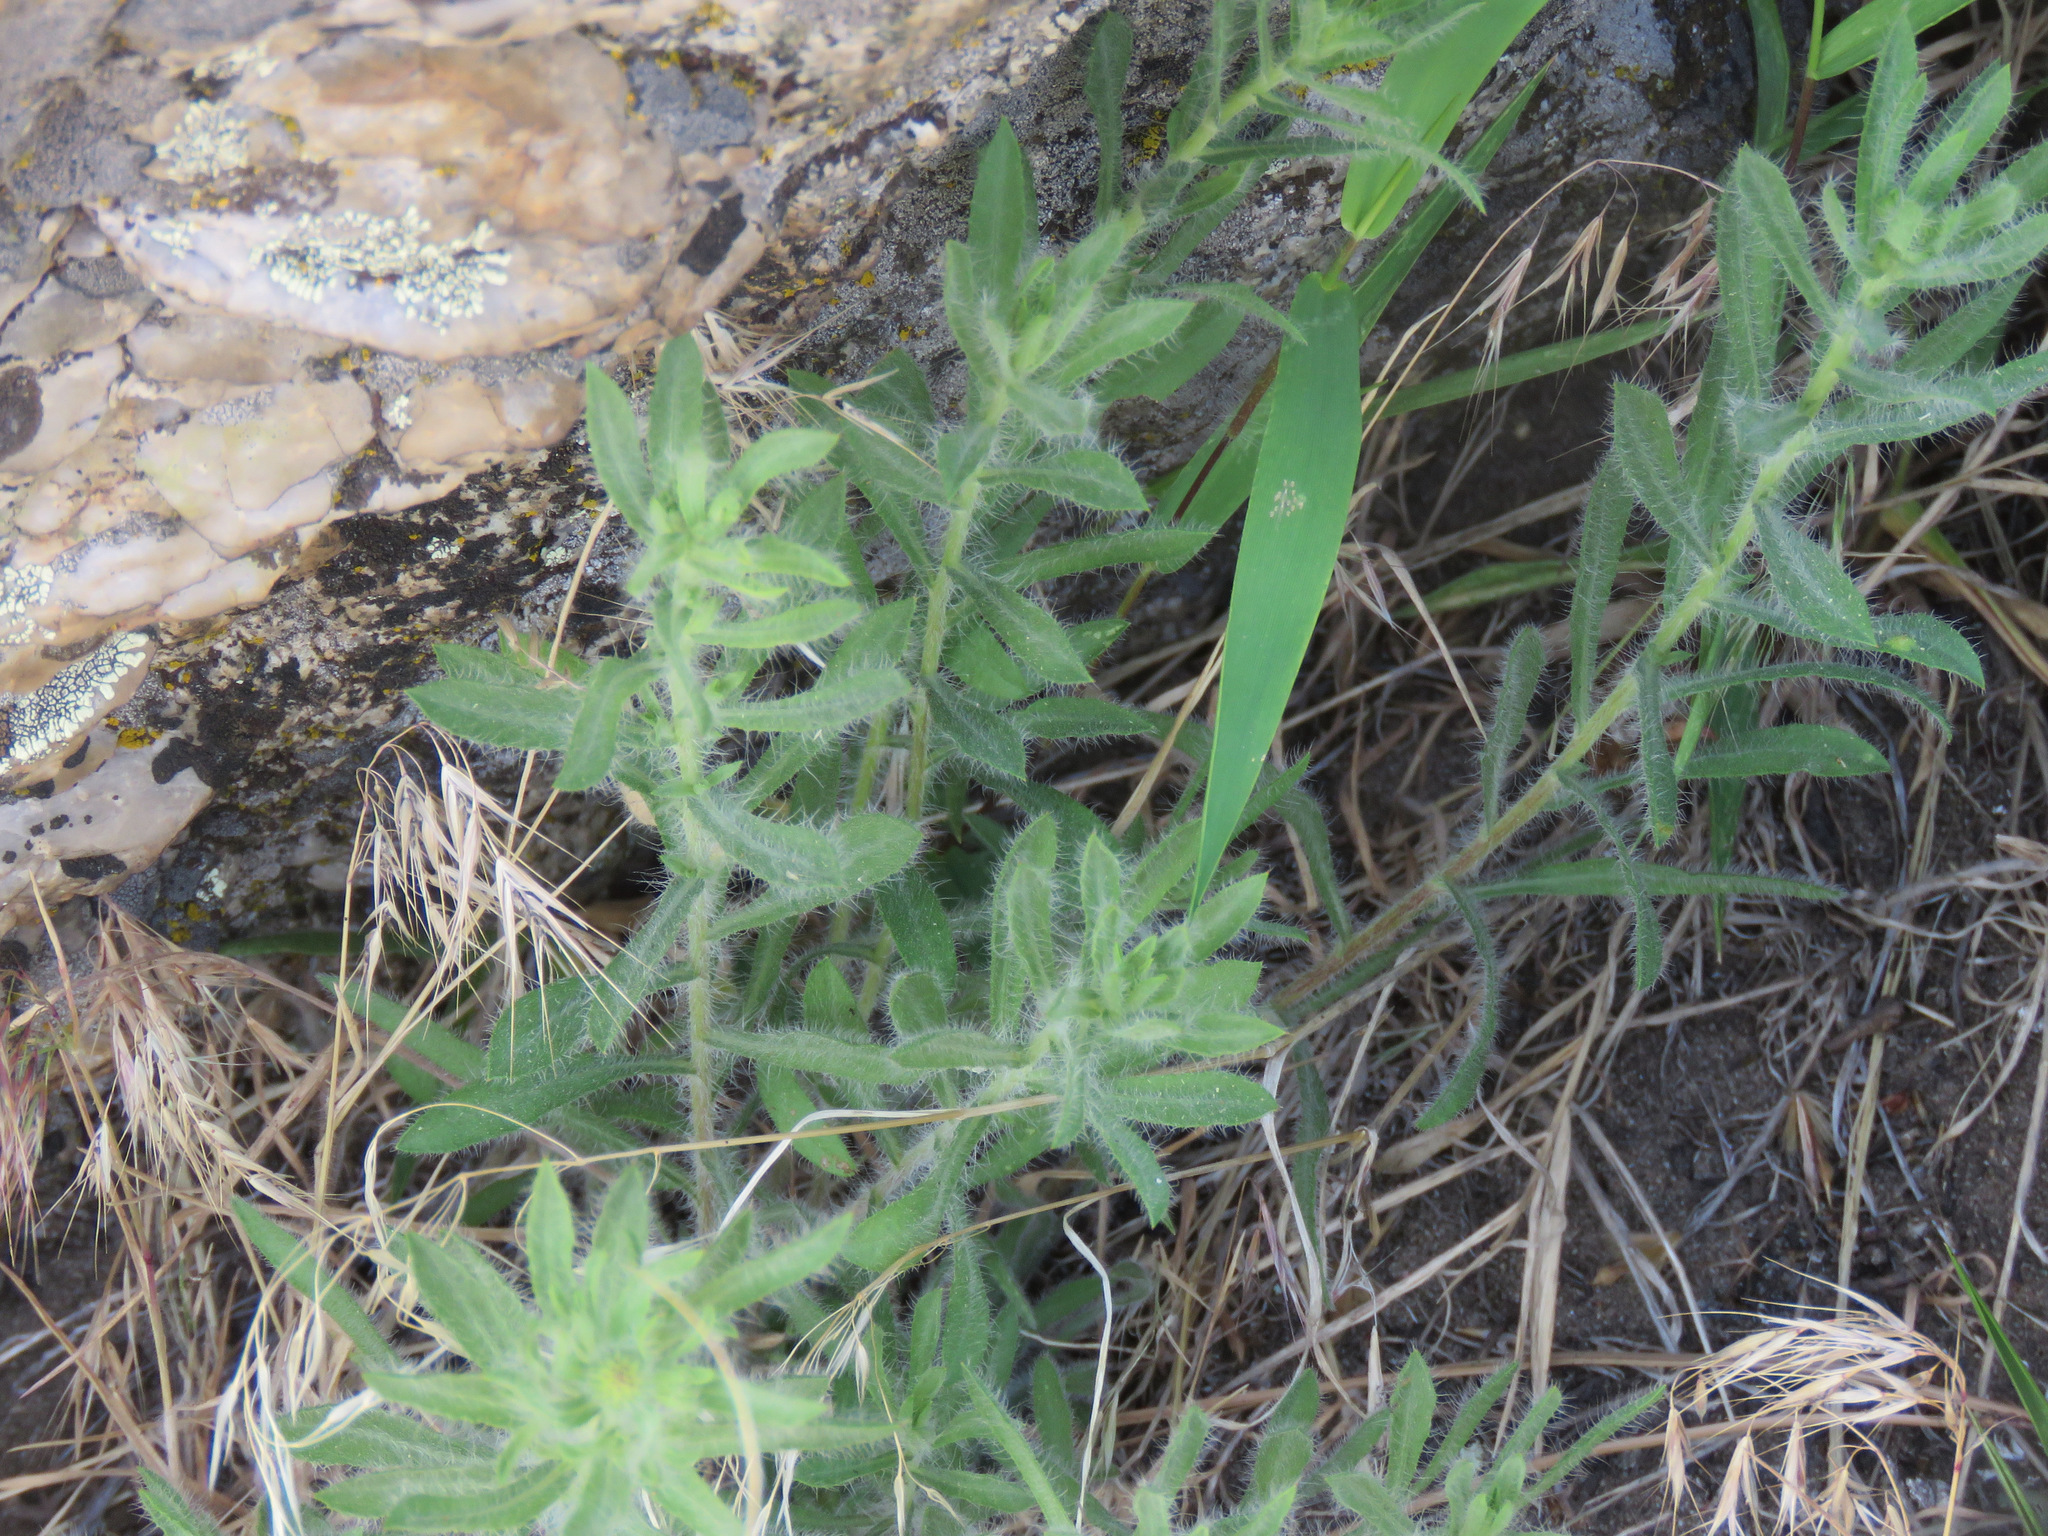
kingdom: Plantae
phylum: Tracheophyta
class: Magnoliopsida
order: Asterales
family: Asteraceae
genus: Heterotheca
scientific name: Heterotheca villosa
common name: Hairy false goldenaster
